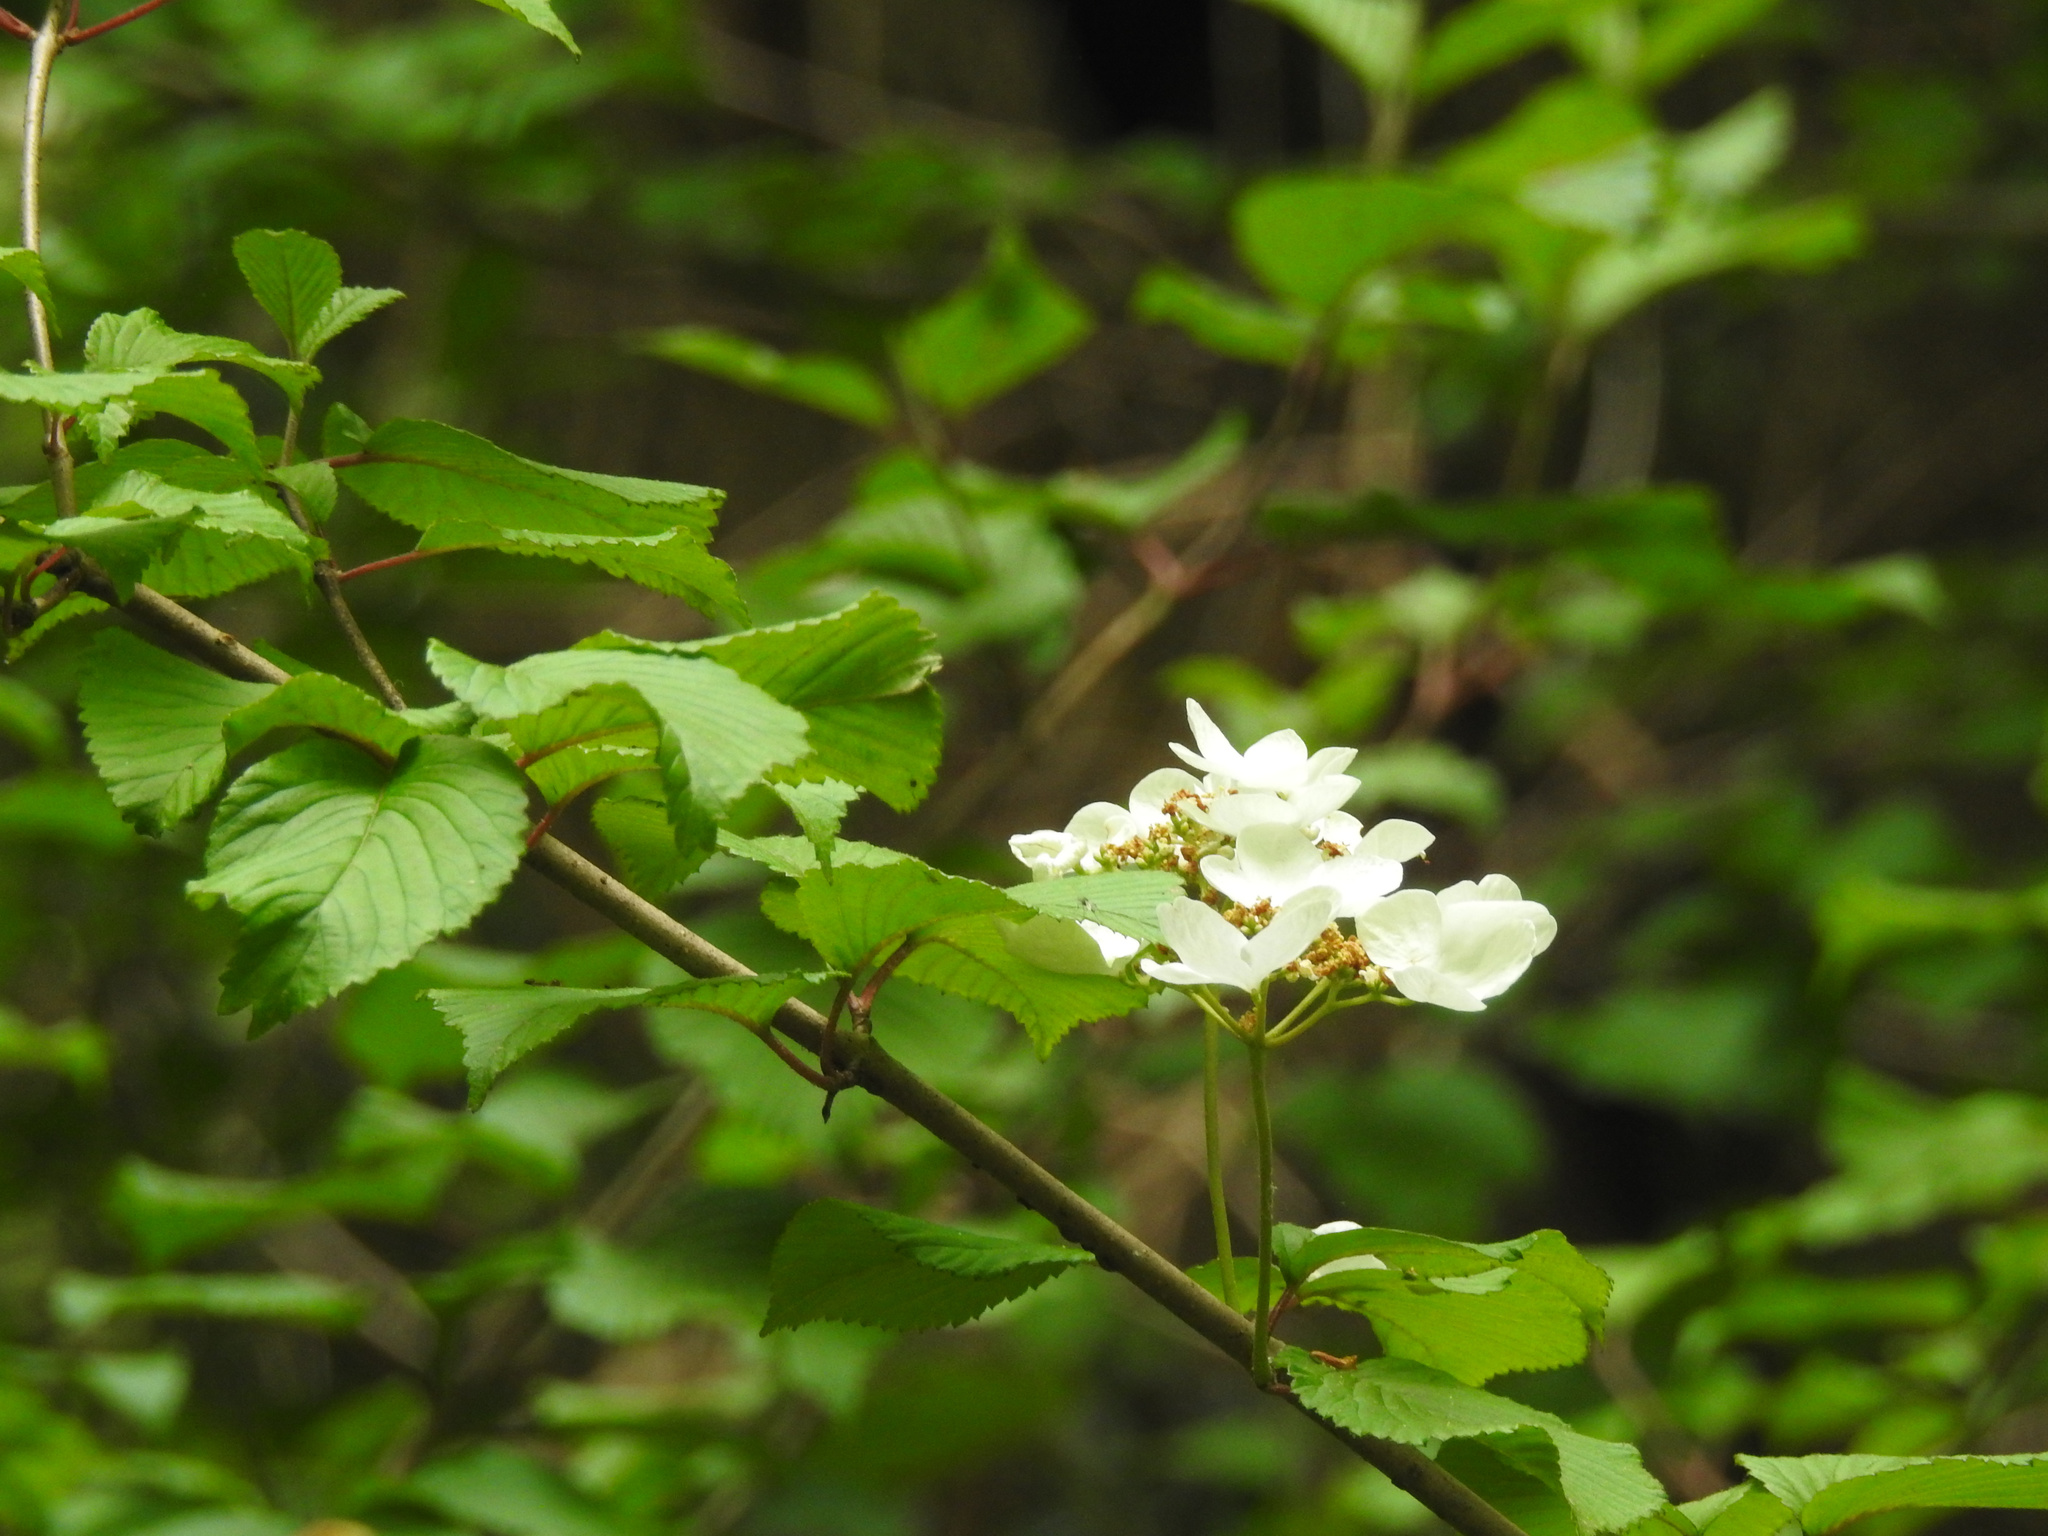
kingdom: Plantae
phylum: Tracheophyta
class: Magnoliopsida
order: Dipsacales
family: Viburnaceae
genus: Viburnum
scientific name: Viburnum plicatum
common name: Japanese snowball
